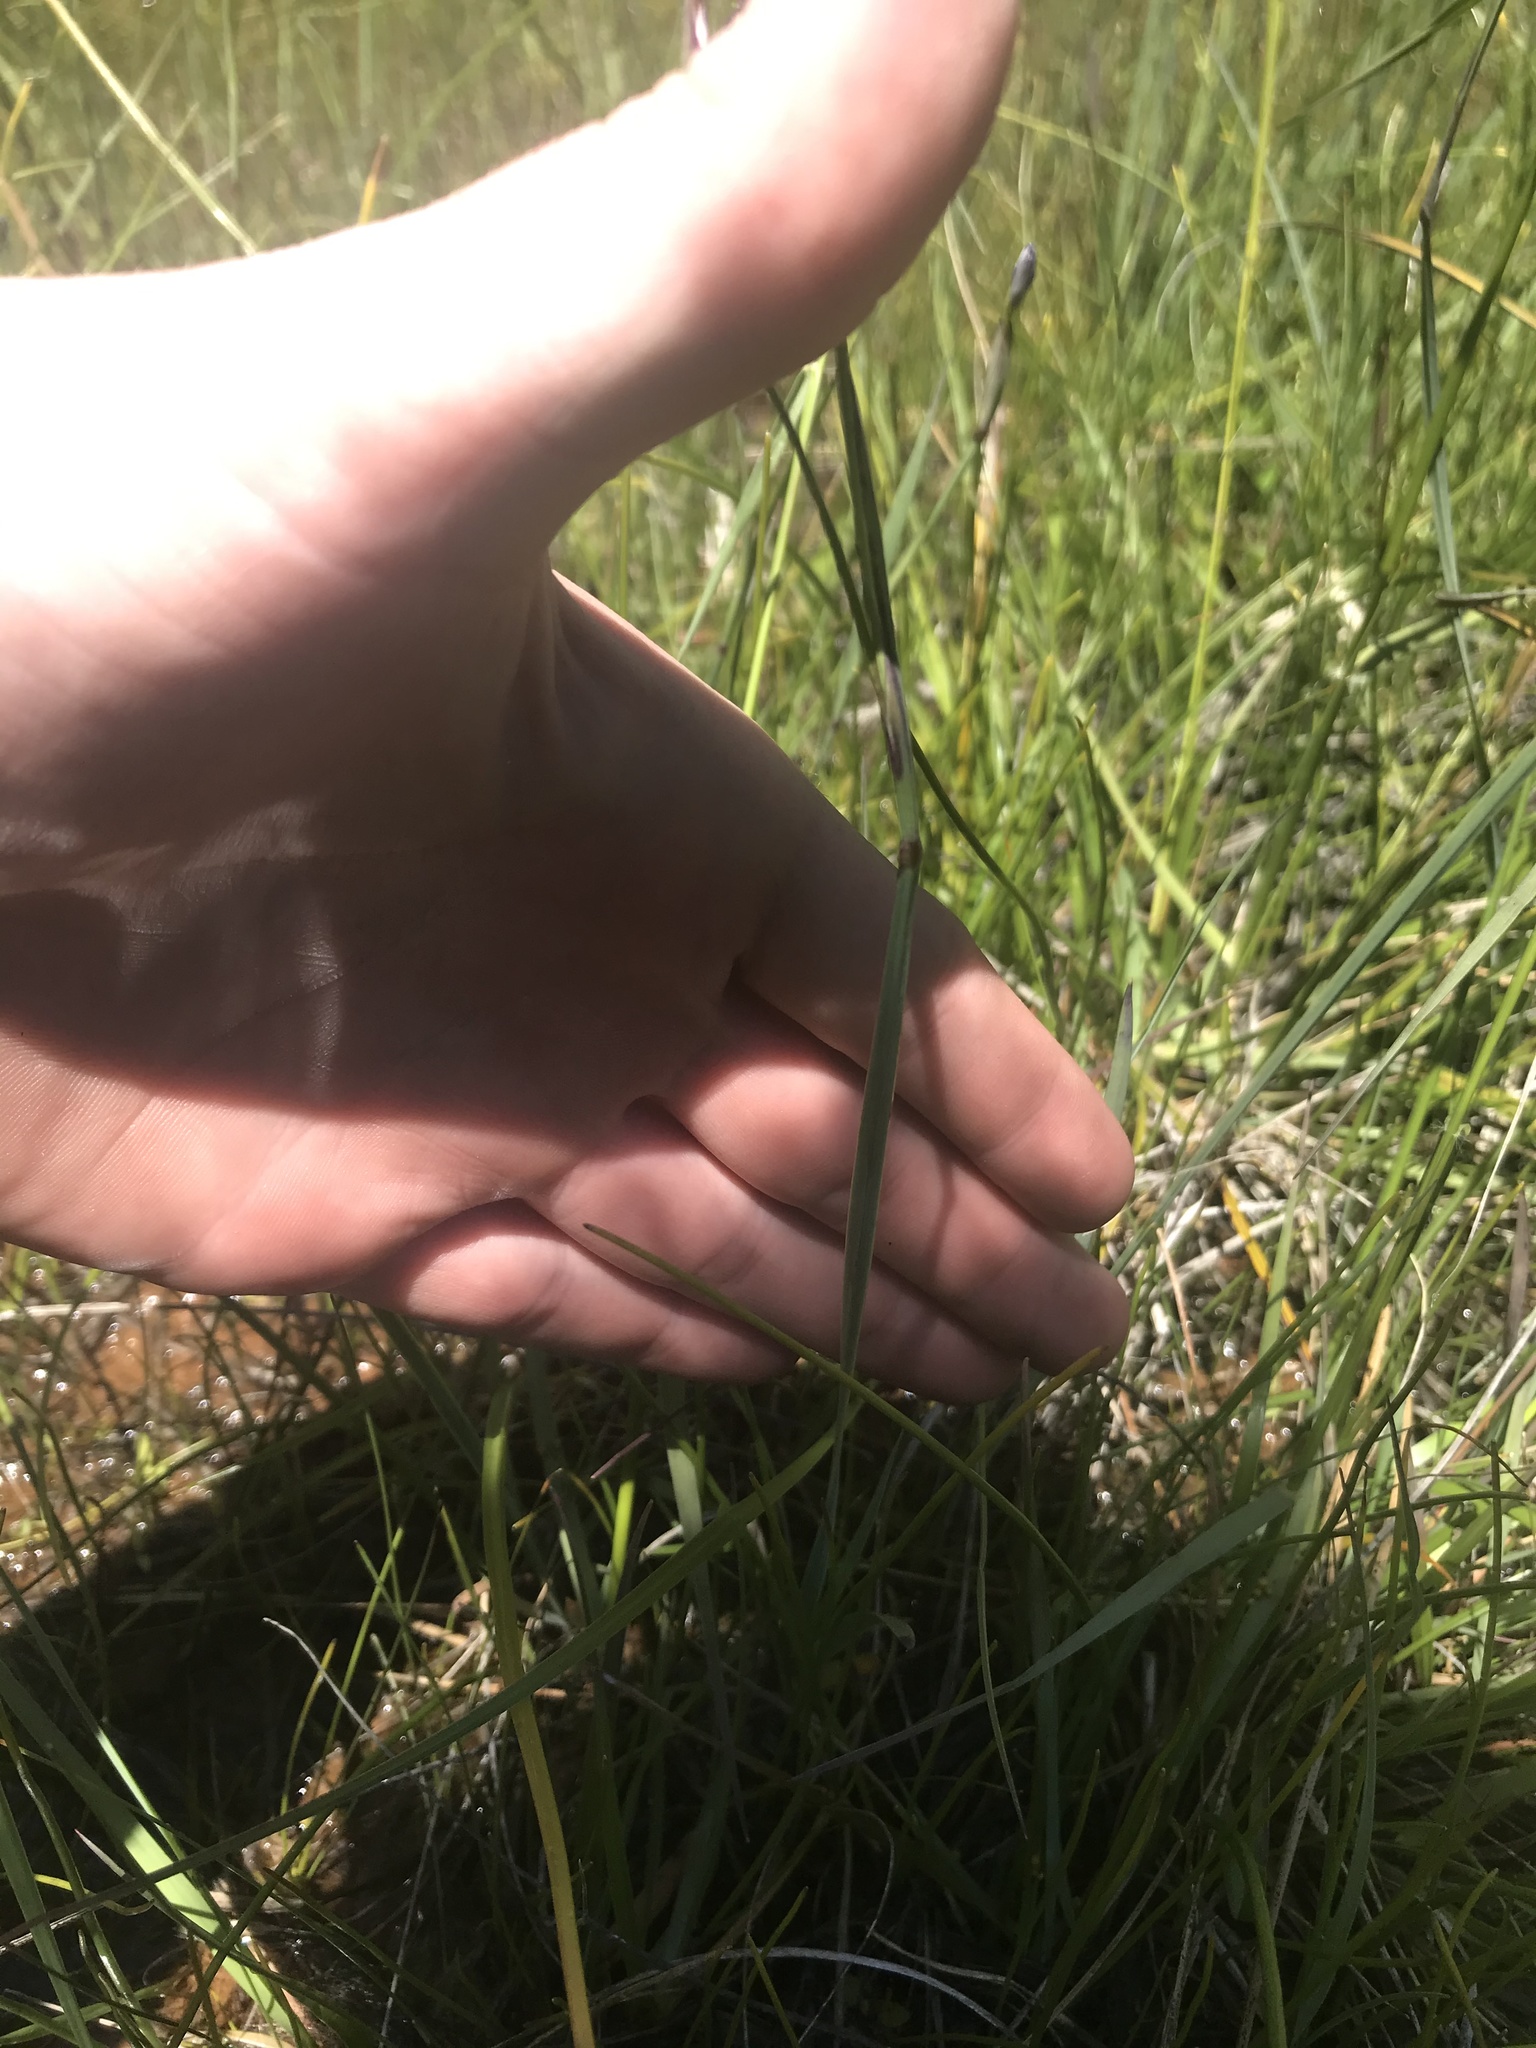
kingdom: Plantae
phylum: Tracheophyta
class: Liliopsida
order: Asparagales
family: Iridaceae
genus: Sisyrinchium
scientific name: Sisyrinchium bellum
